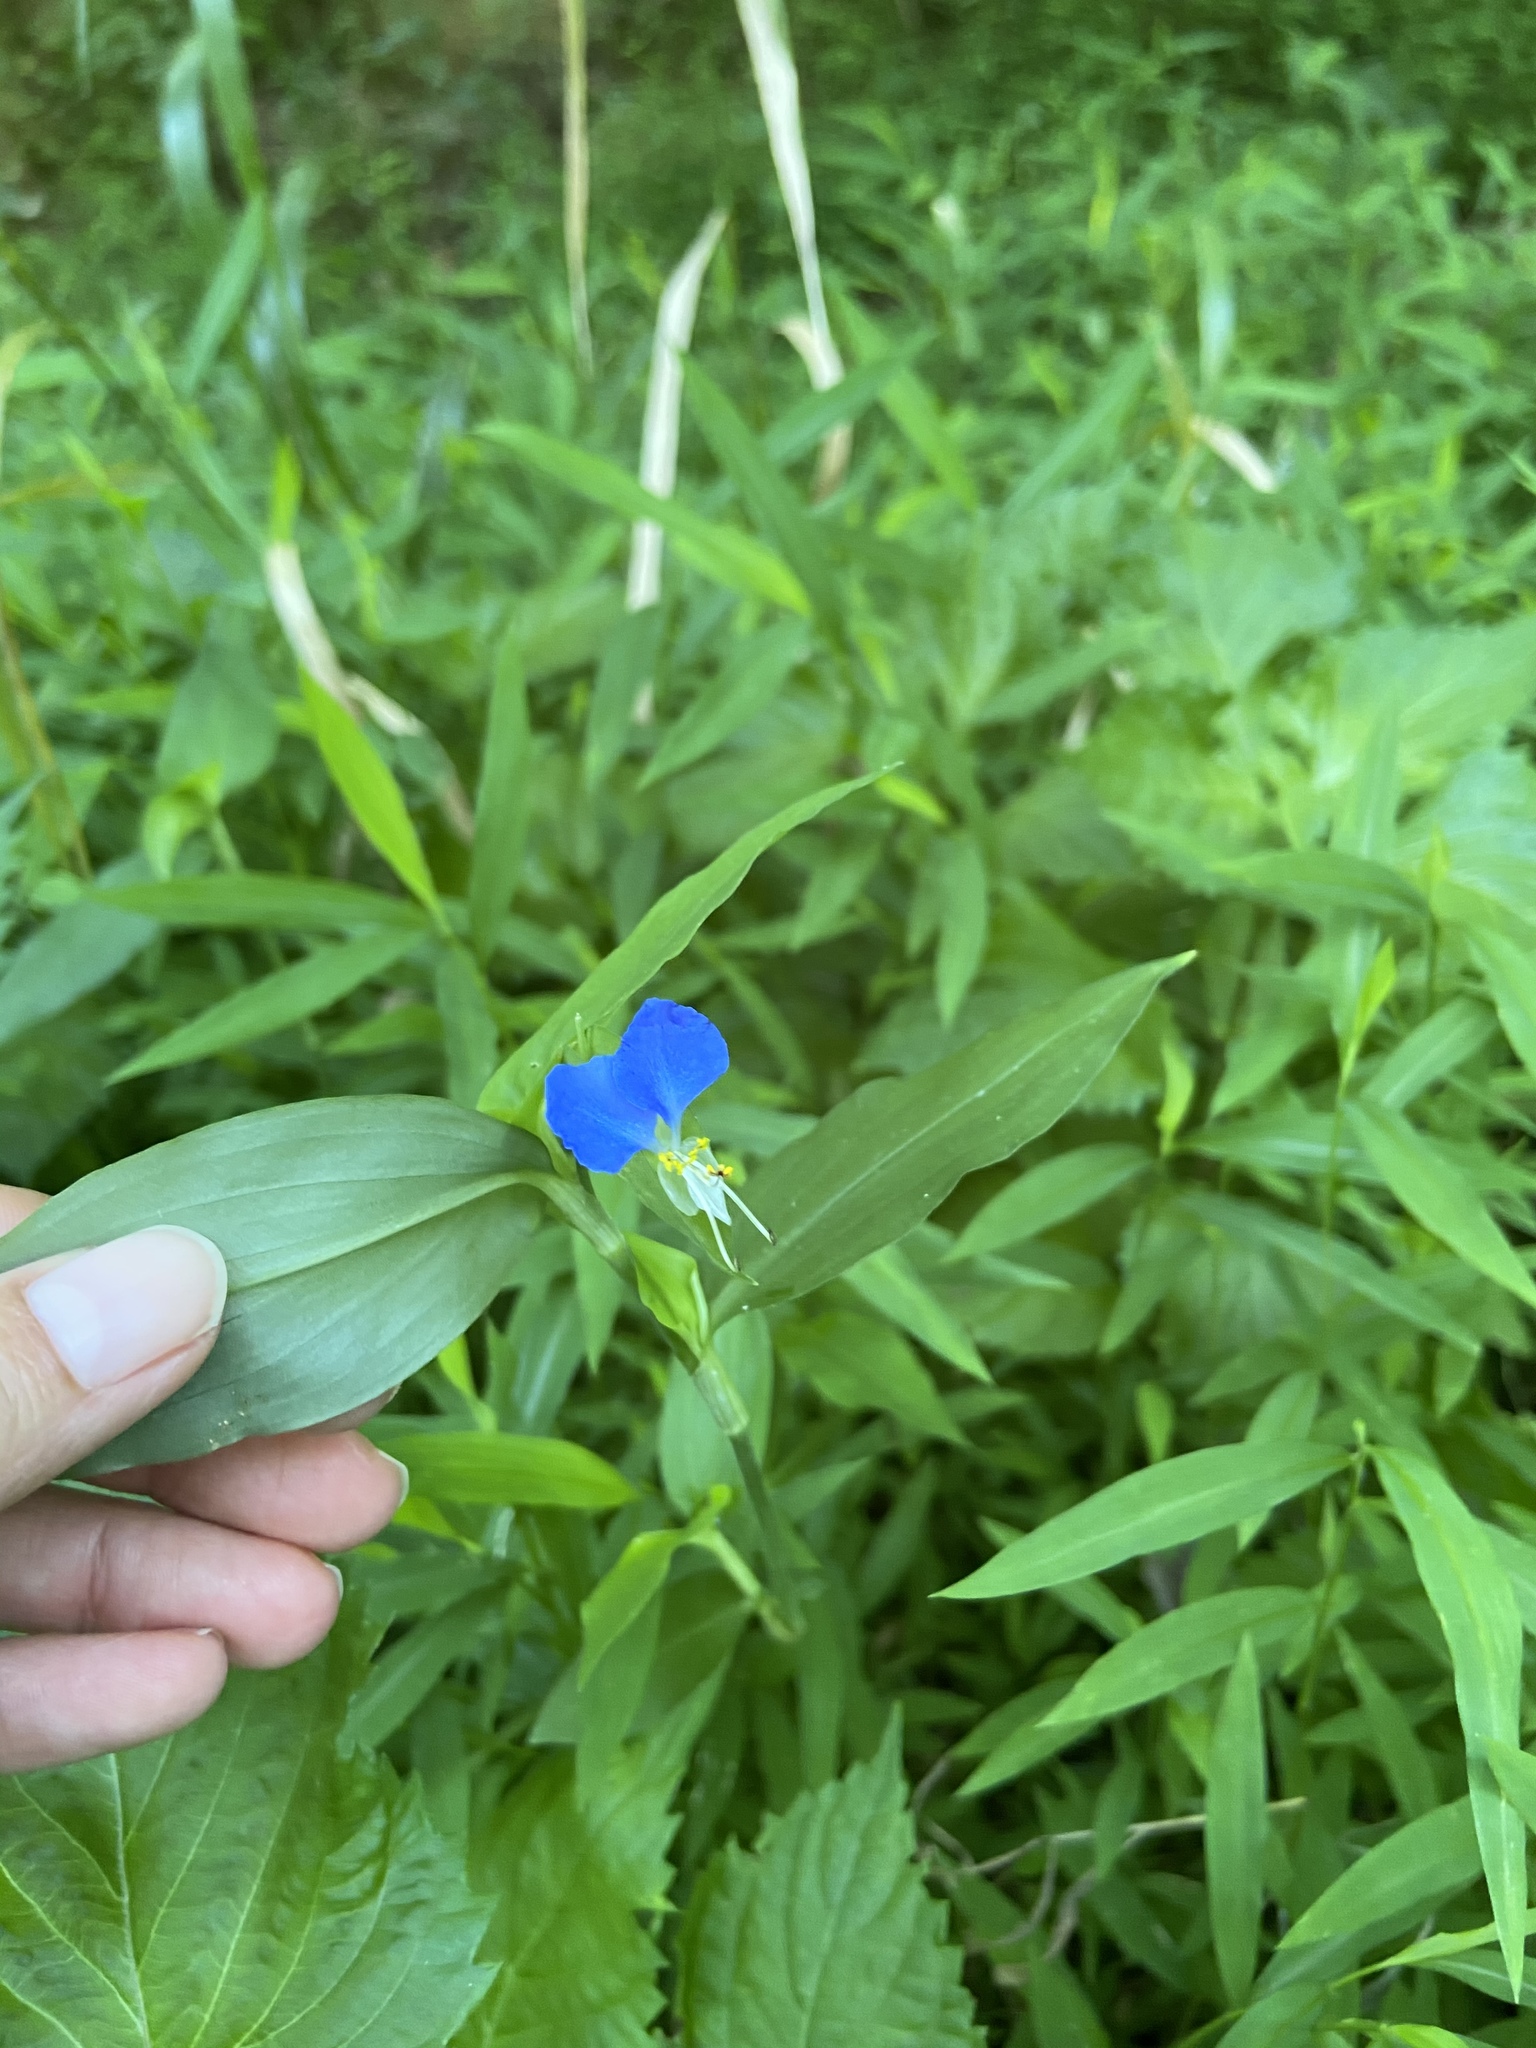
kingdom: Plantae
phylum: Tracheophyta
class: Liliopsida
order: Commelinales
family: Commelinaceae
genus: Commelina
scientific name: Commelina communis
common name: Asiatic dayflower
